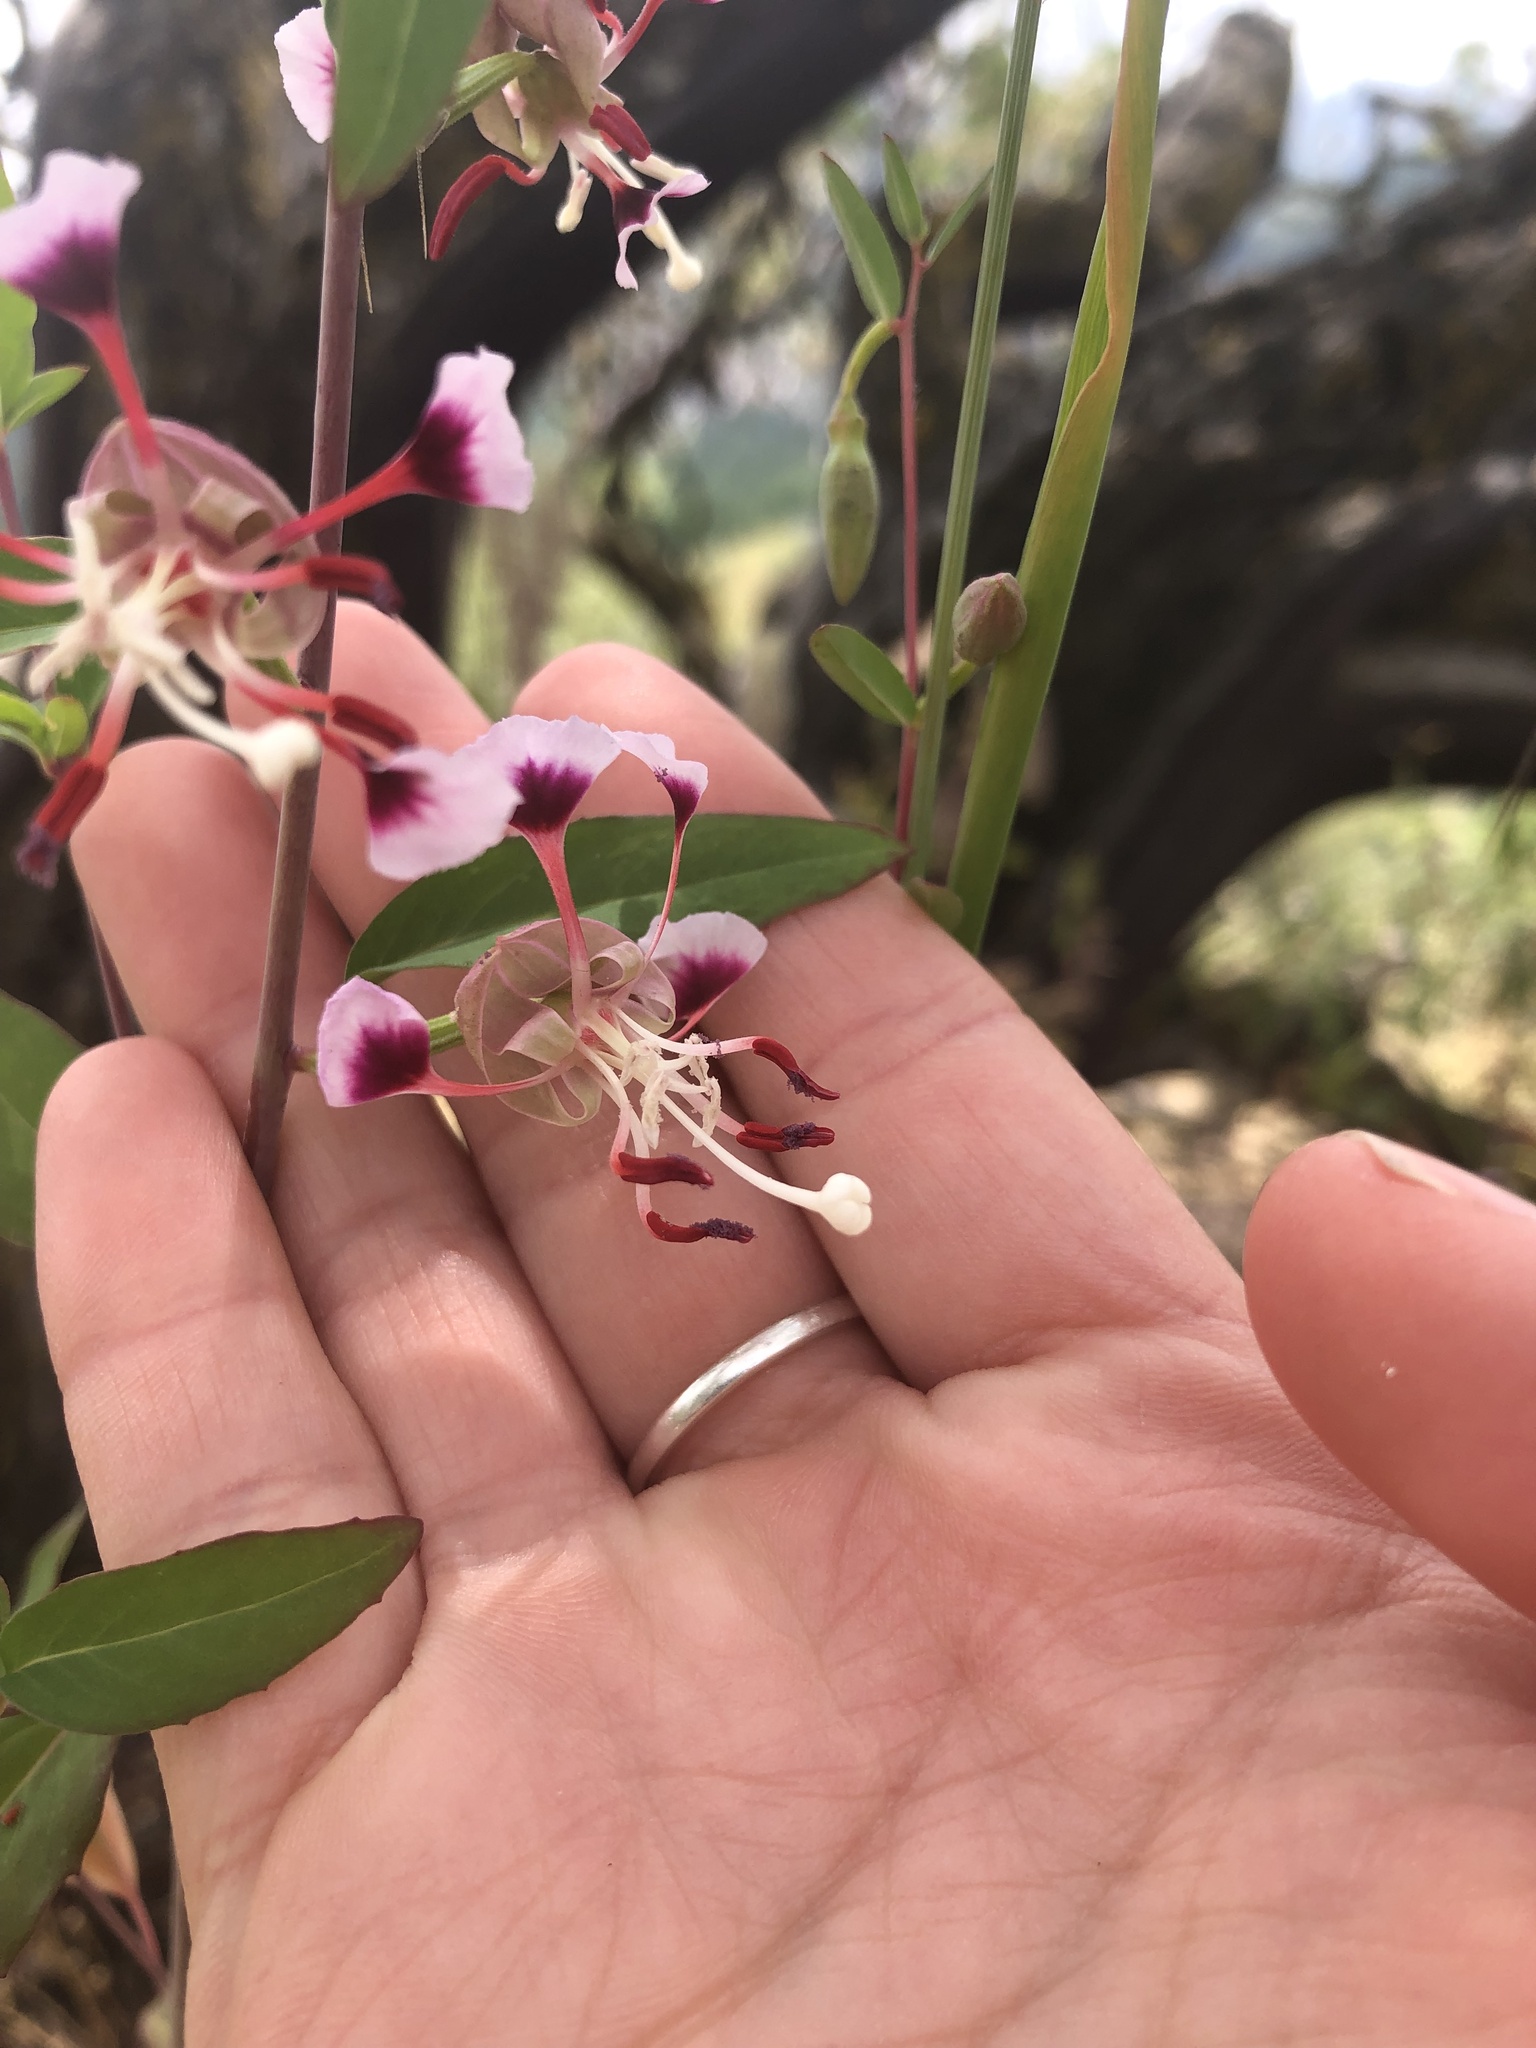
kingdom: Plantae
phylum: Tracheophyta
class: Magnoliopsida
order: Myrtales
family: Onagraceae
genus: Clarkia
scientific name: Clarkia springvillensis
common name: Springville clarkia
